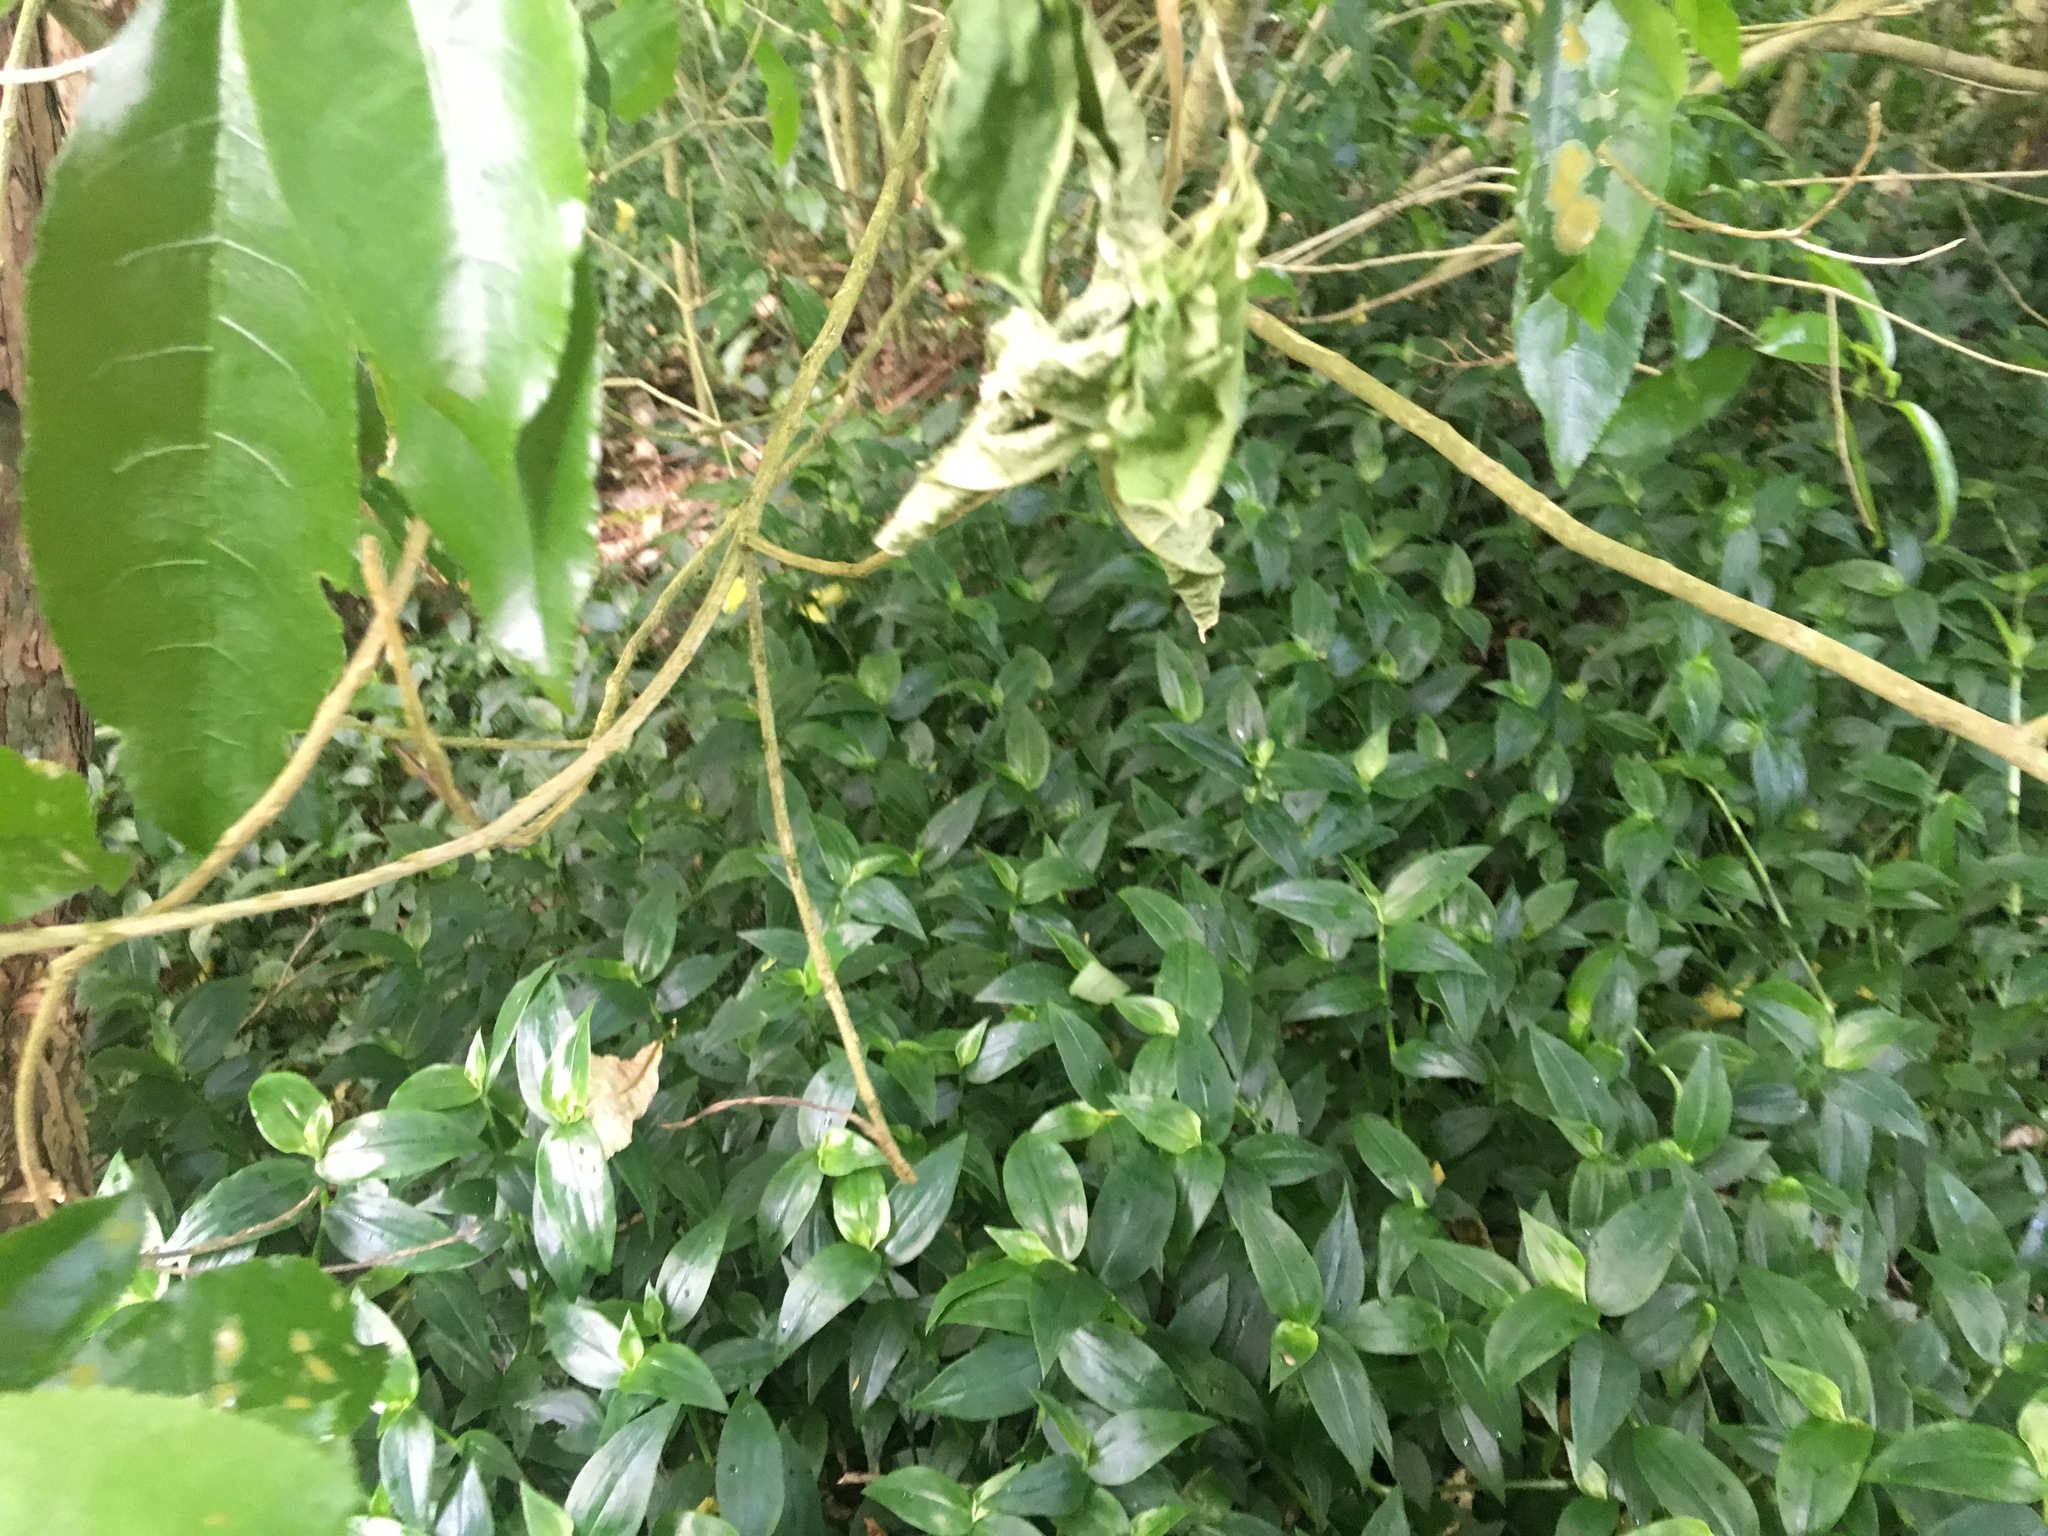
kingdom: Plantae
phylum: Tracheophyta
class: Liliopsida
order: Commelinales
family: Commelinaceae
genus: Tradescantia
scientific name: Tradescantia fluminensis
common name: Wandering-jew
